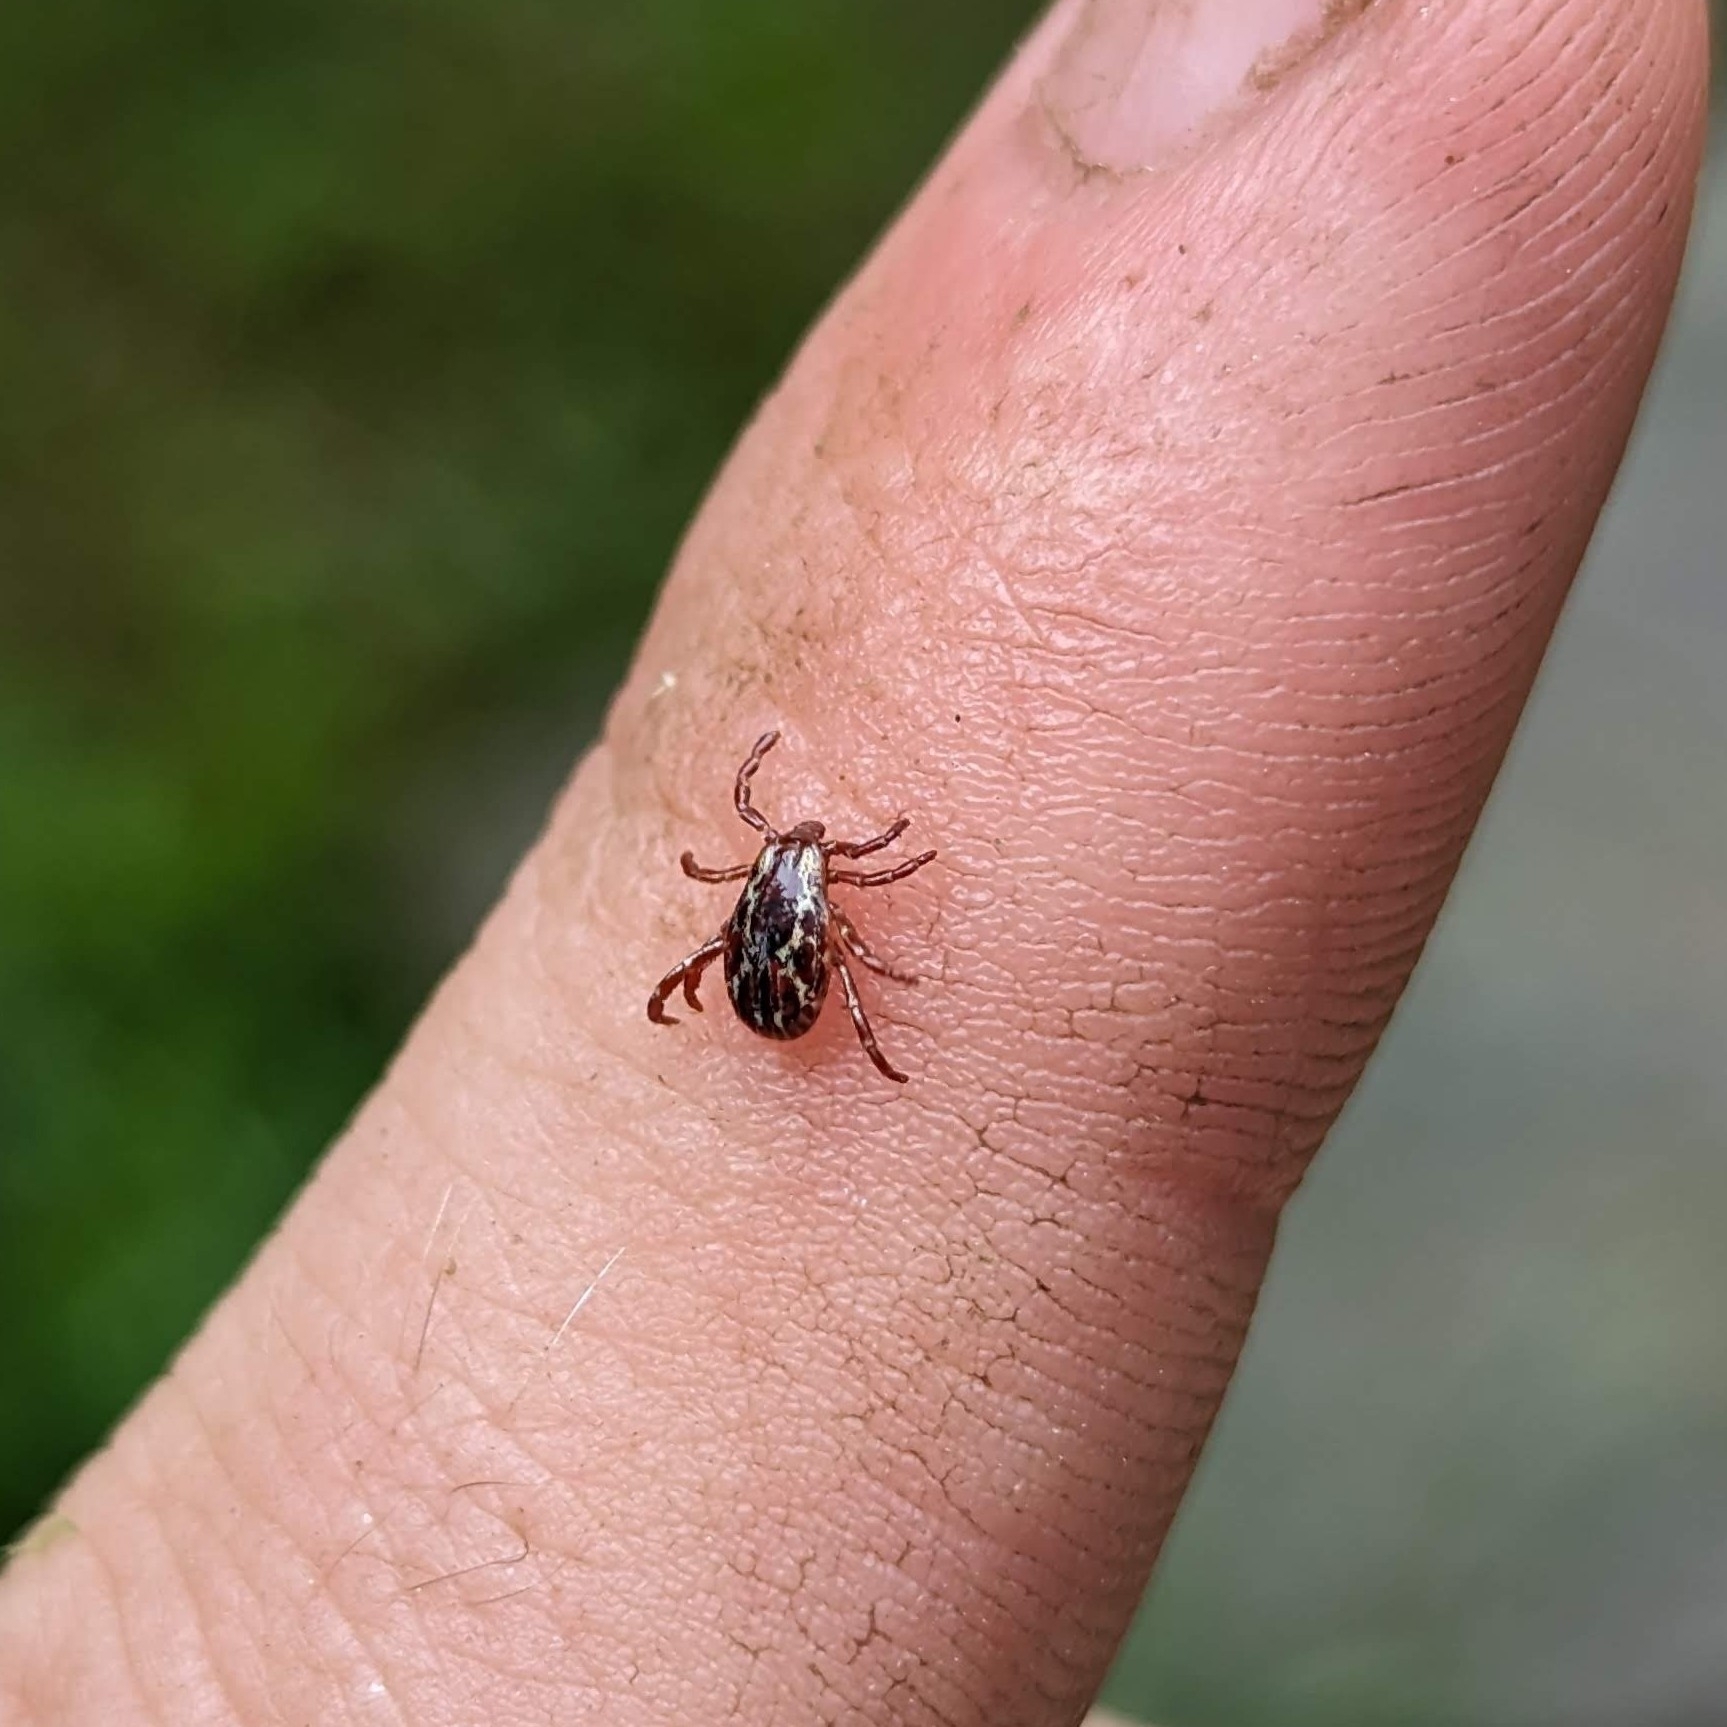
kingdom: Animalia
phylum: Arthropoda
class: Arachnida
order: Ixodida
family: Ixodidae
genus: Dermacentor
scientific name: Dermacentor variabilis
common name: American dog tick
